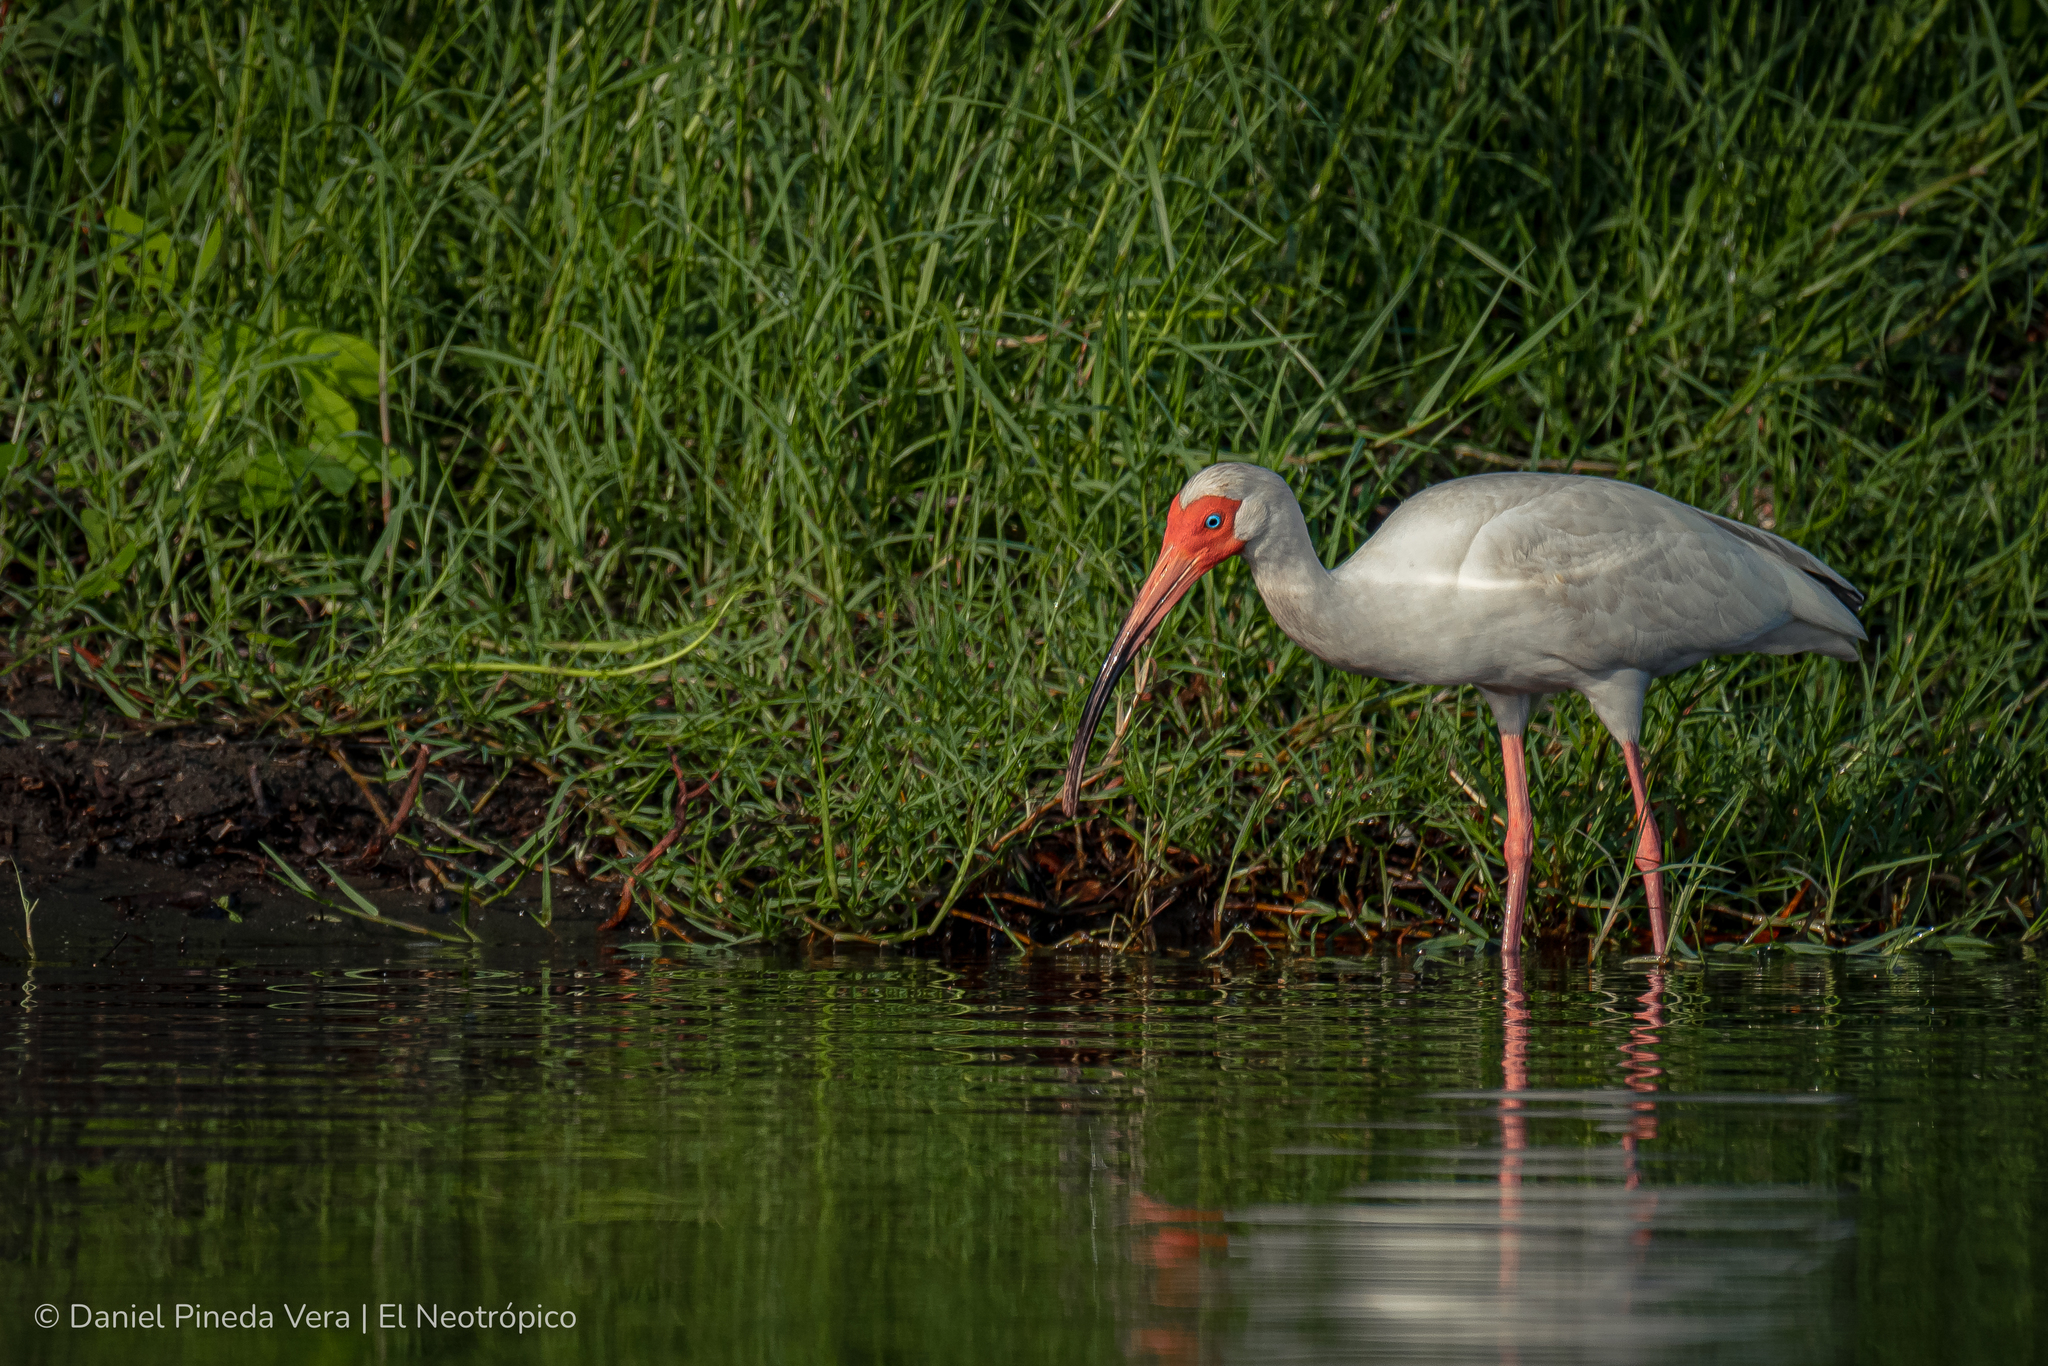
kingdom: Animalia
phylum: Chordata
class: Aves
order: Pelecaniformes
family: Threskiornithidae
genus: Eudocimus
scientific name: Eudocimus albus
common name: White ibis
